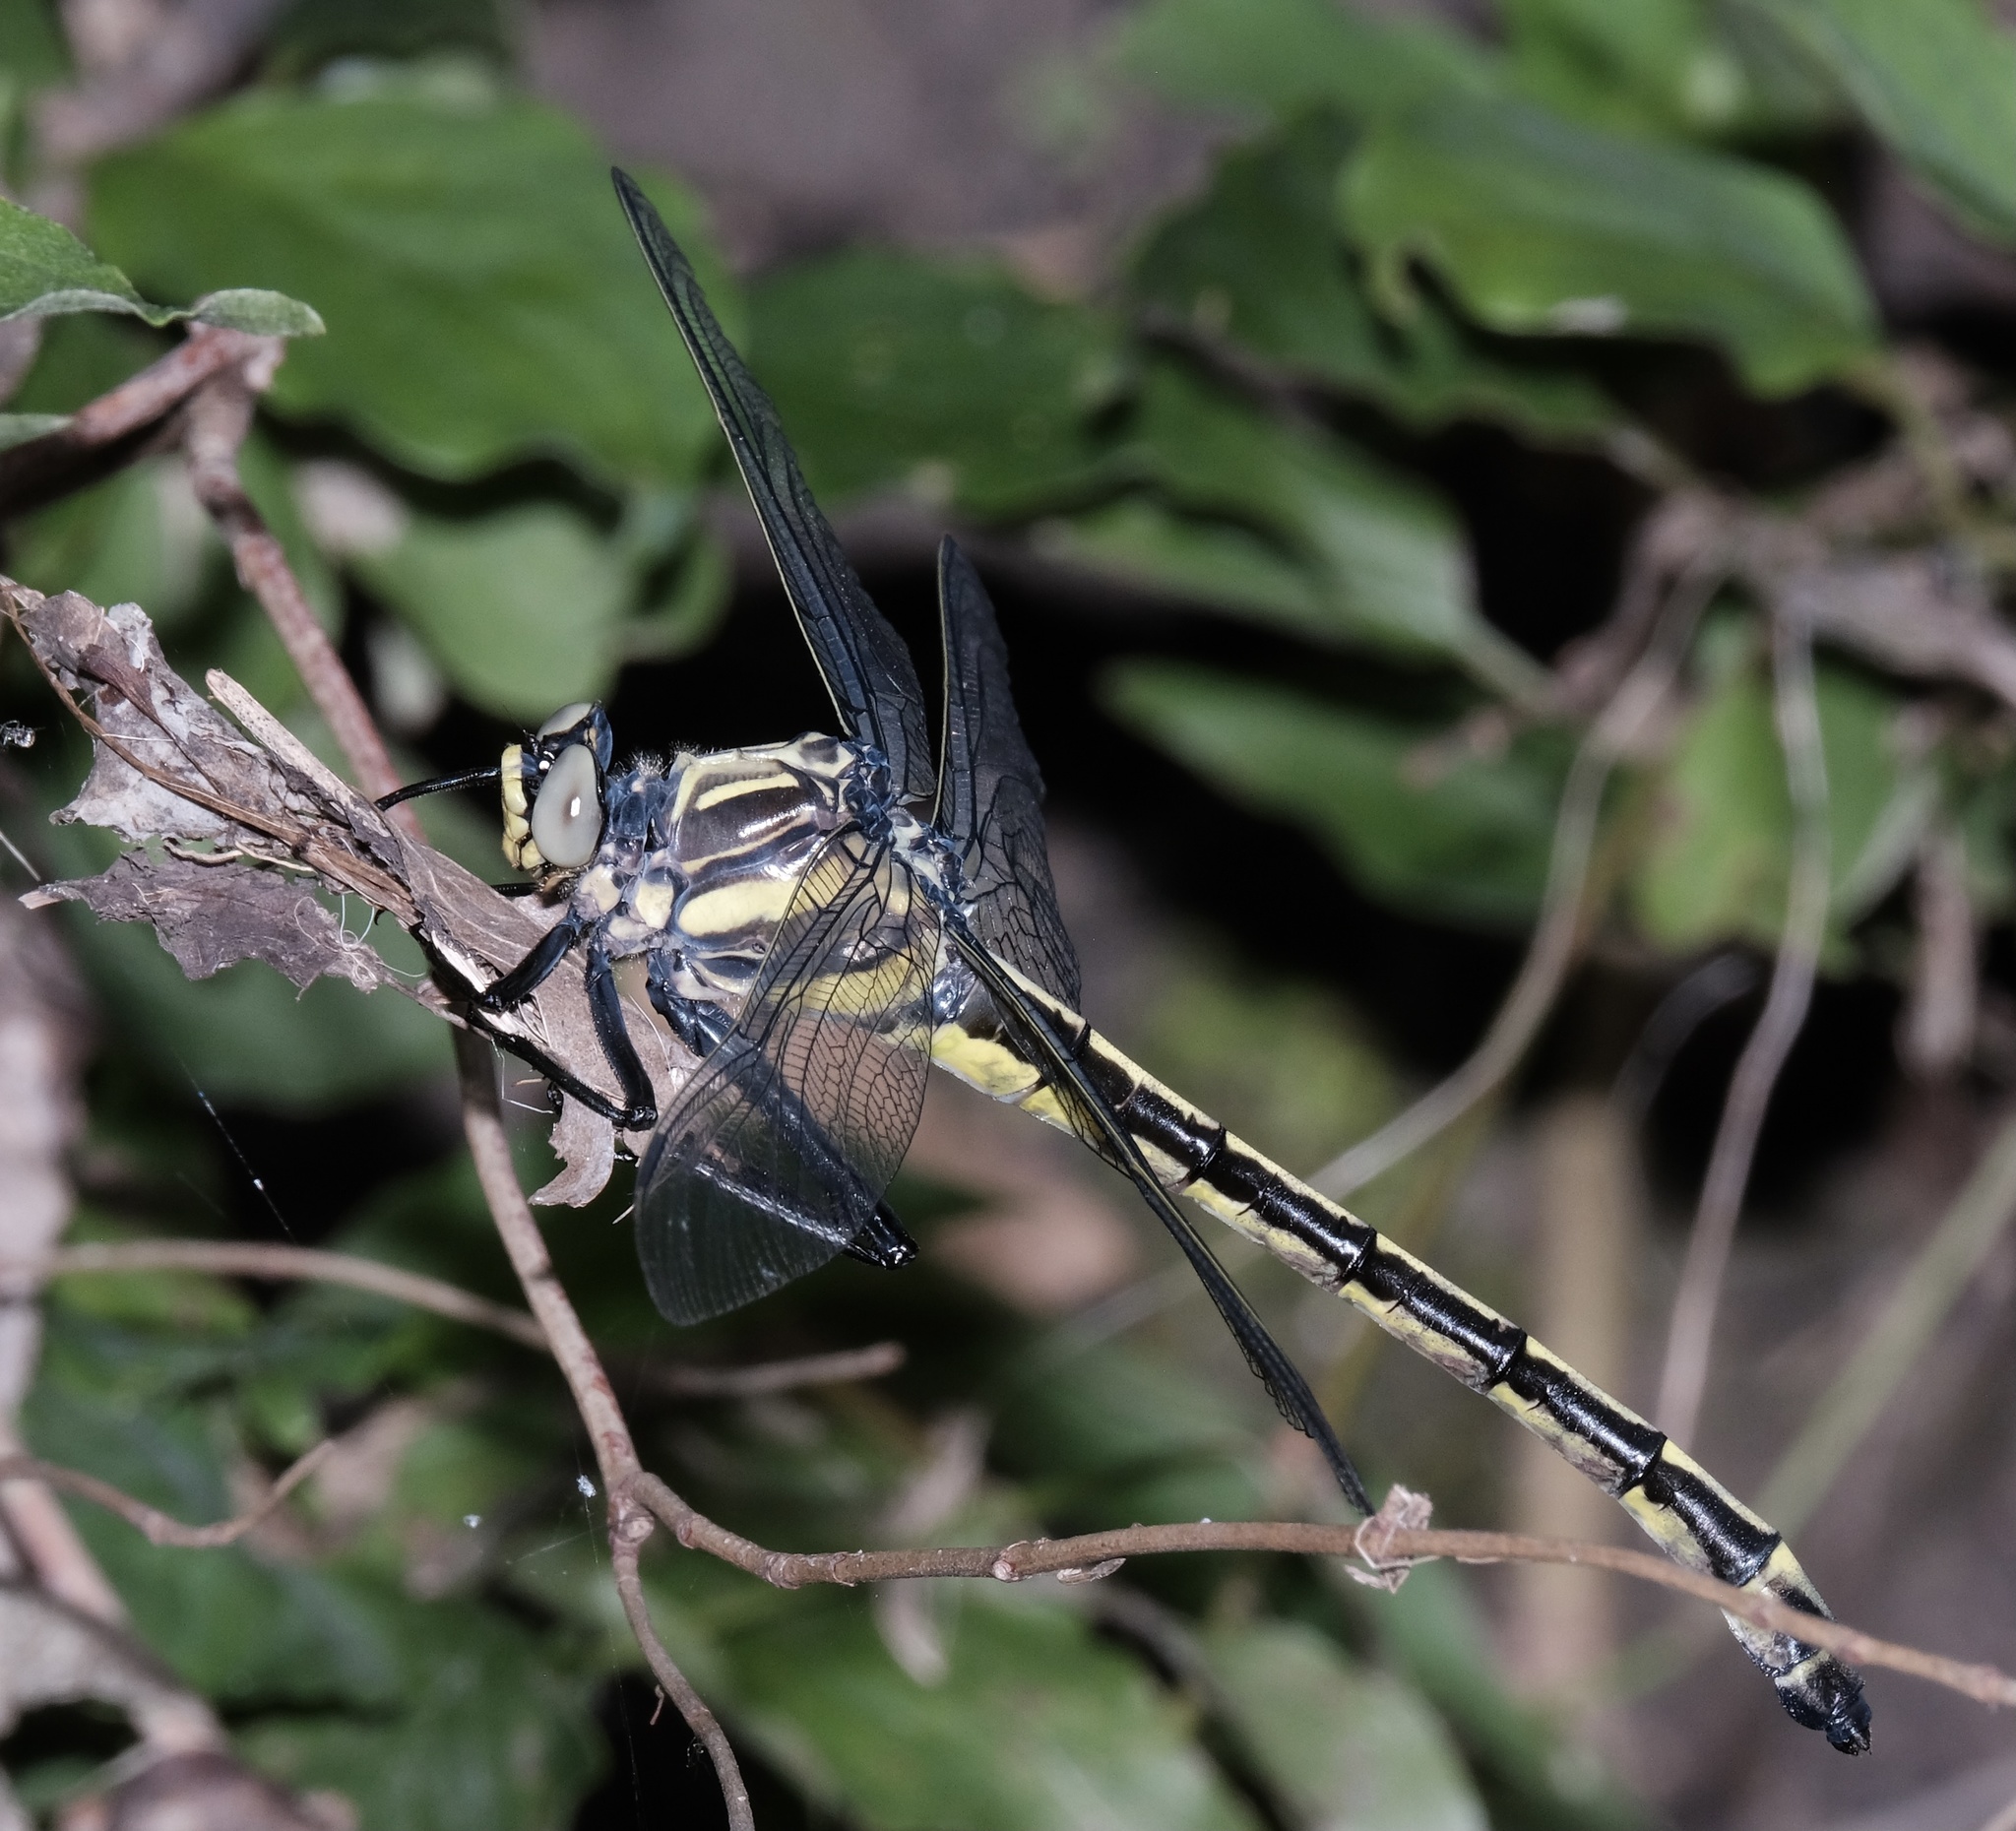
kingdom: Animalia
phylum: Arthropoda
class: Insecta
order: Odonata
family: Gomphidae
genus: Hagenius
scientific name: Hagenius brevistylus
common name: Dragonhunter
